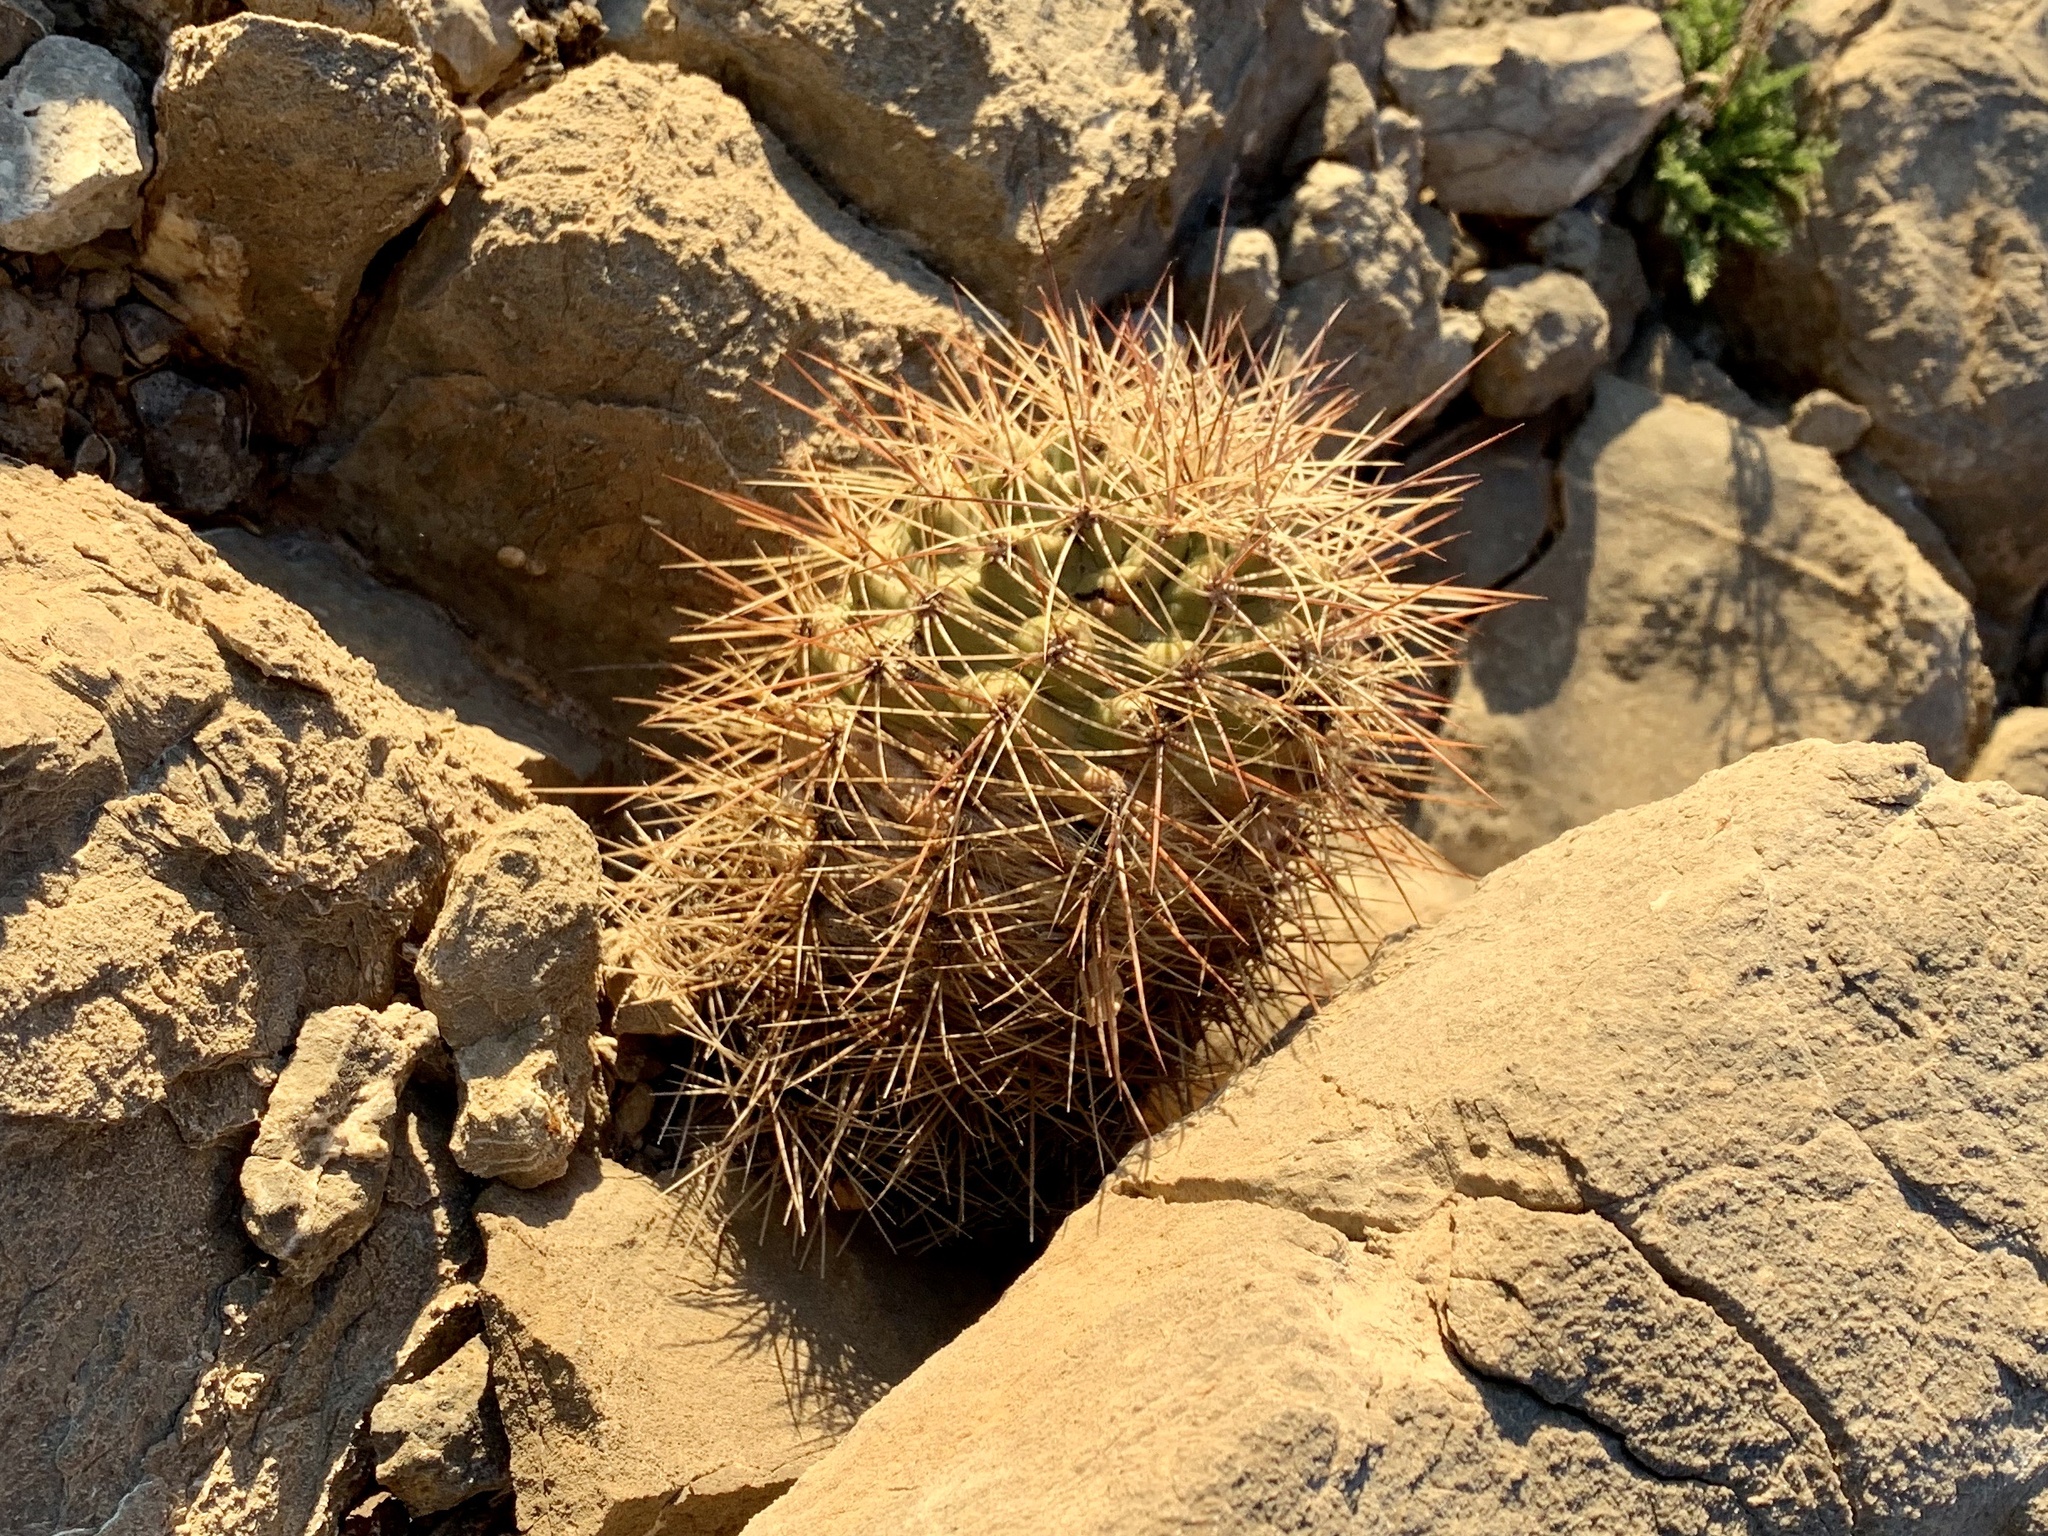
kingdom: Plantae
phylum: Tracheophyta
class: Magnoliopsida
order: Caryophyllales
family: Cactaceae
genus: Echinocereus
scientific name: Echinocereus coccineus
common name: Scarlet hedgehog cactus
